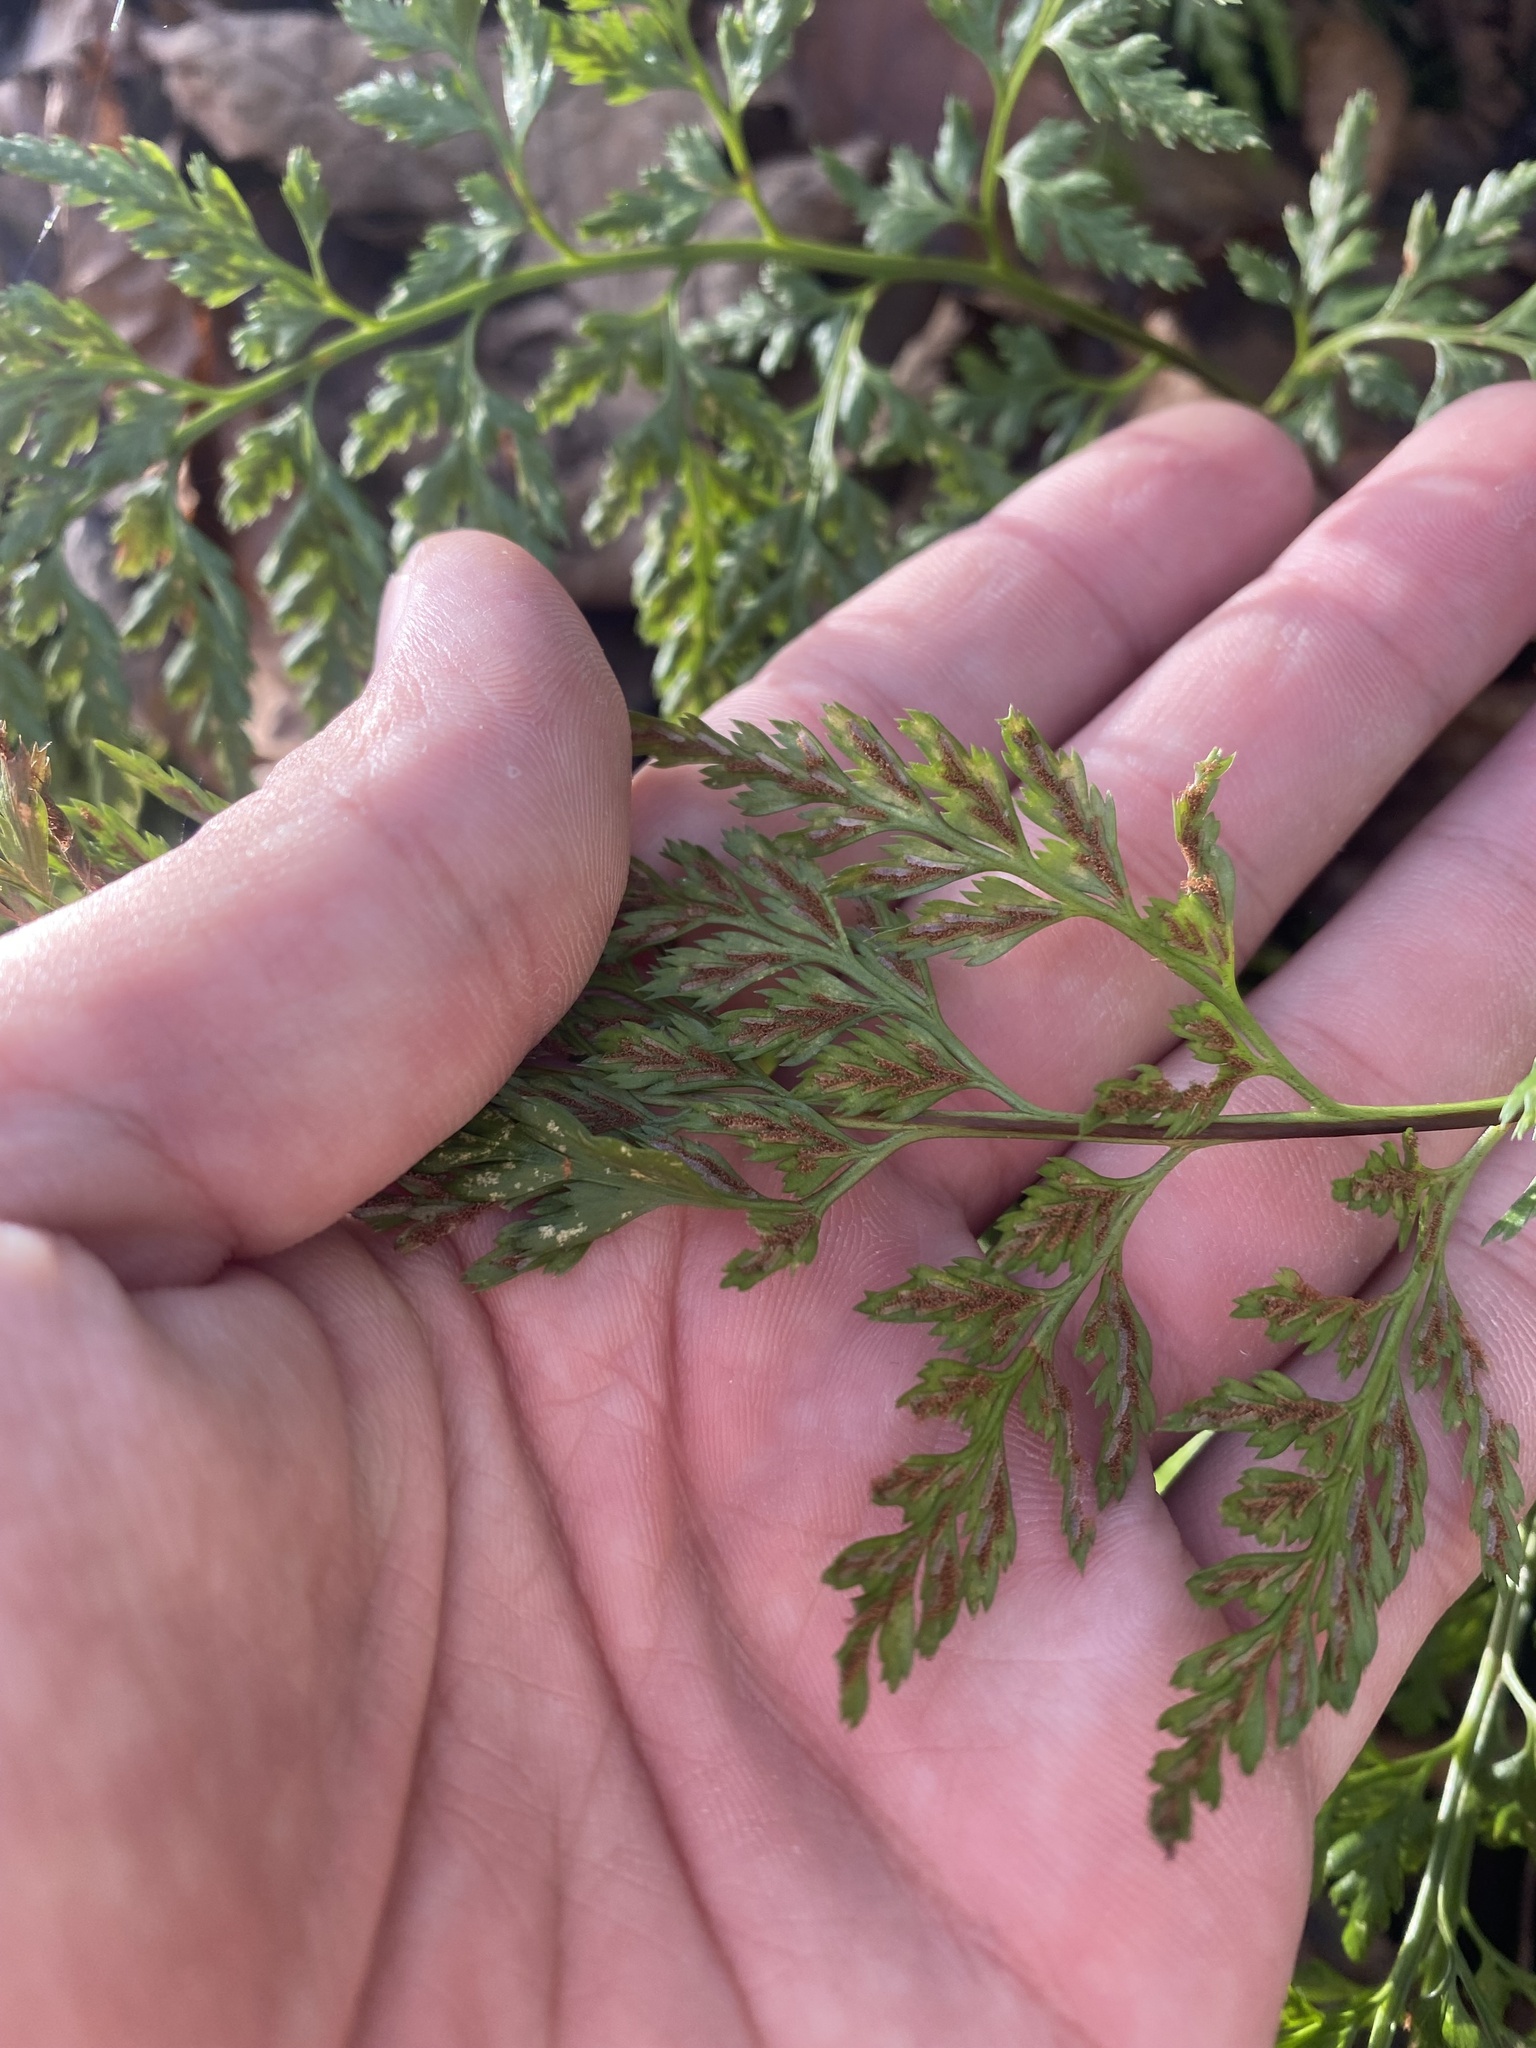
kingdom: Plantae
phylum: Tracheophyta
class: Polypodiopsida
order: Polypodiales
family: Aspleniaceae
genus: Asplenium
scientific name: Asplenium adiantum-nigrum
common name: Black spleenwort
